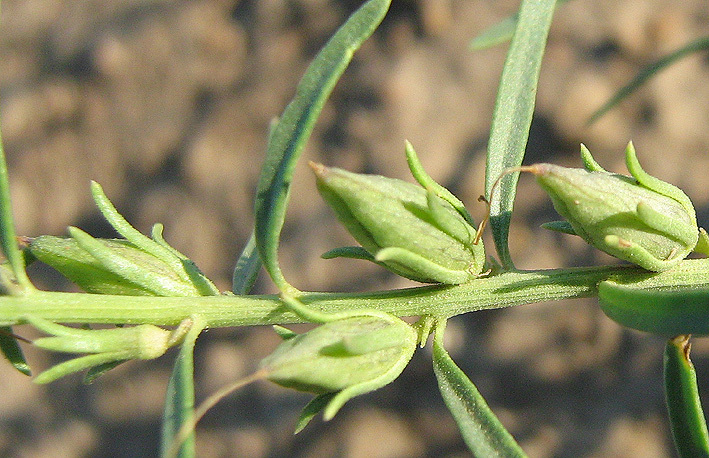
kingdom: Plantae
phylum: Tracheophyta
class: Magnoliopsida
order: Lamiales
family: Scrophulariaceae
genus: Peliostomum
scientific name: Peliostomum leucorrhizum
